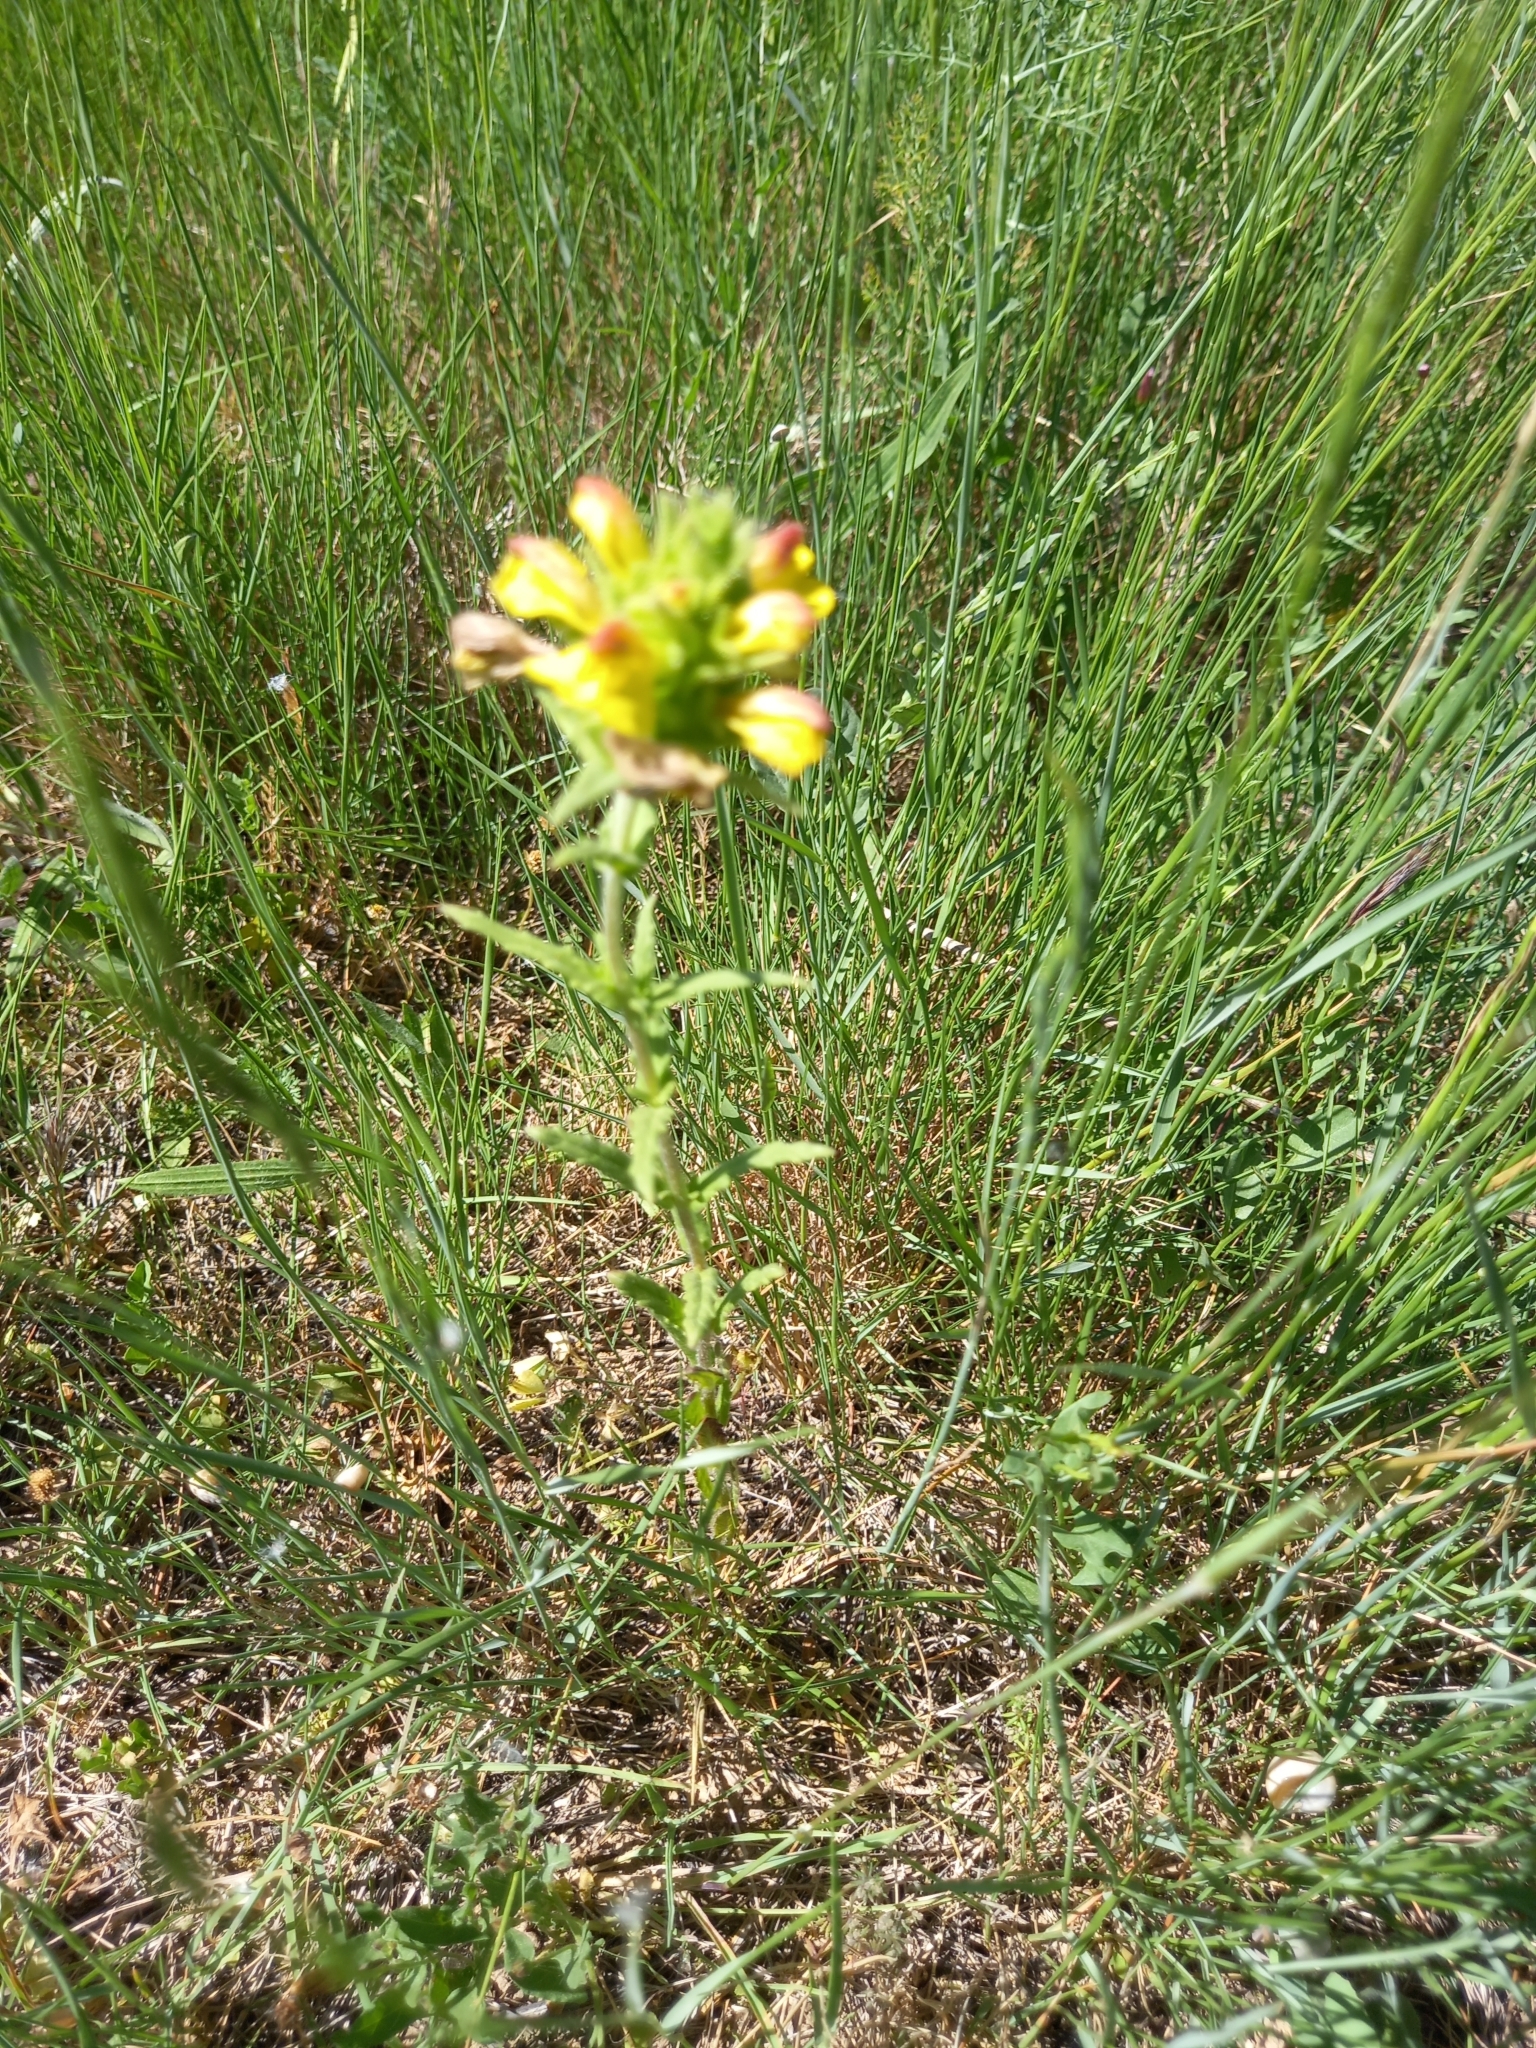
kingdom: Plantae
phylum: Tracheophyta
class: Magnoliopsida
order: Lamiales
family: Orobanchaceae
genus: Bellardia
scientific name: Bellardia trixago
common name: Mediterranean lineseed
